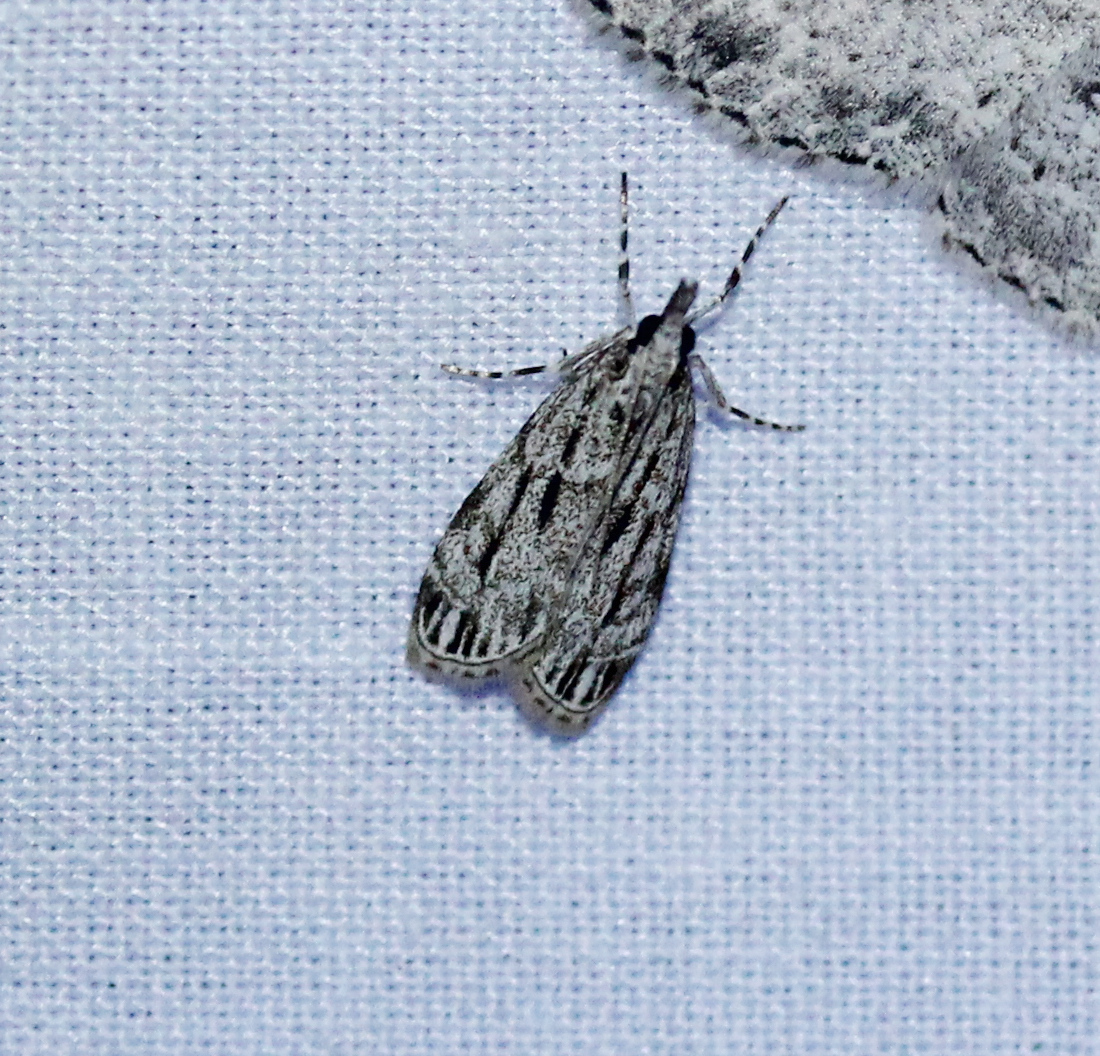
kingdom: Animalia
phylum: Arthropoda
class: Insecta
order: Lepidoptera
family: Crambidae
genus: Eudonia
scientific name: Eudonia strigalis
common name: Striped eudonia moth
